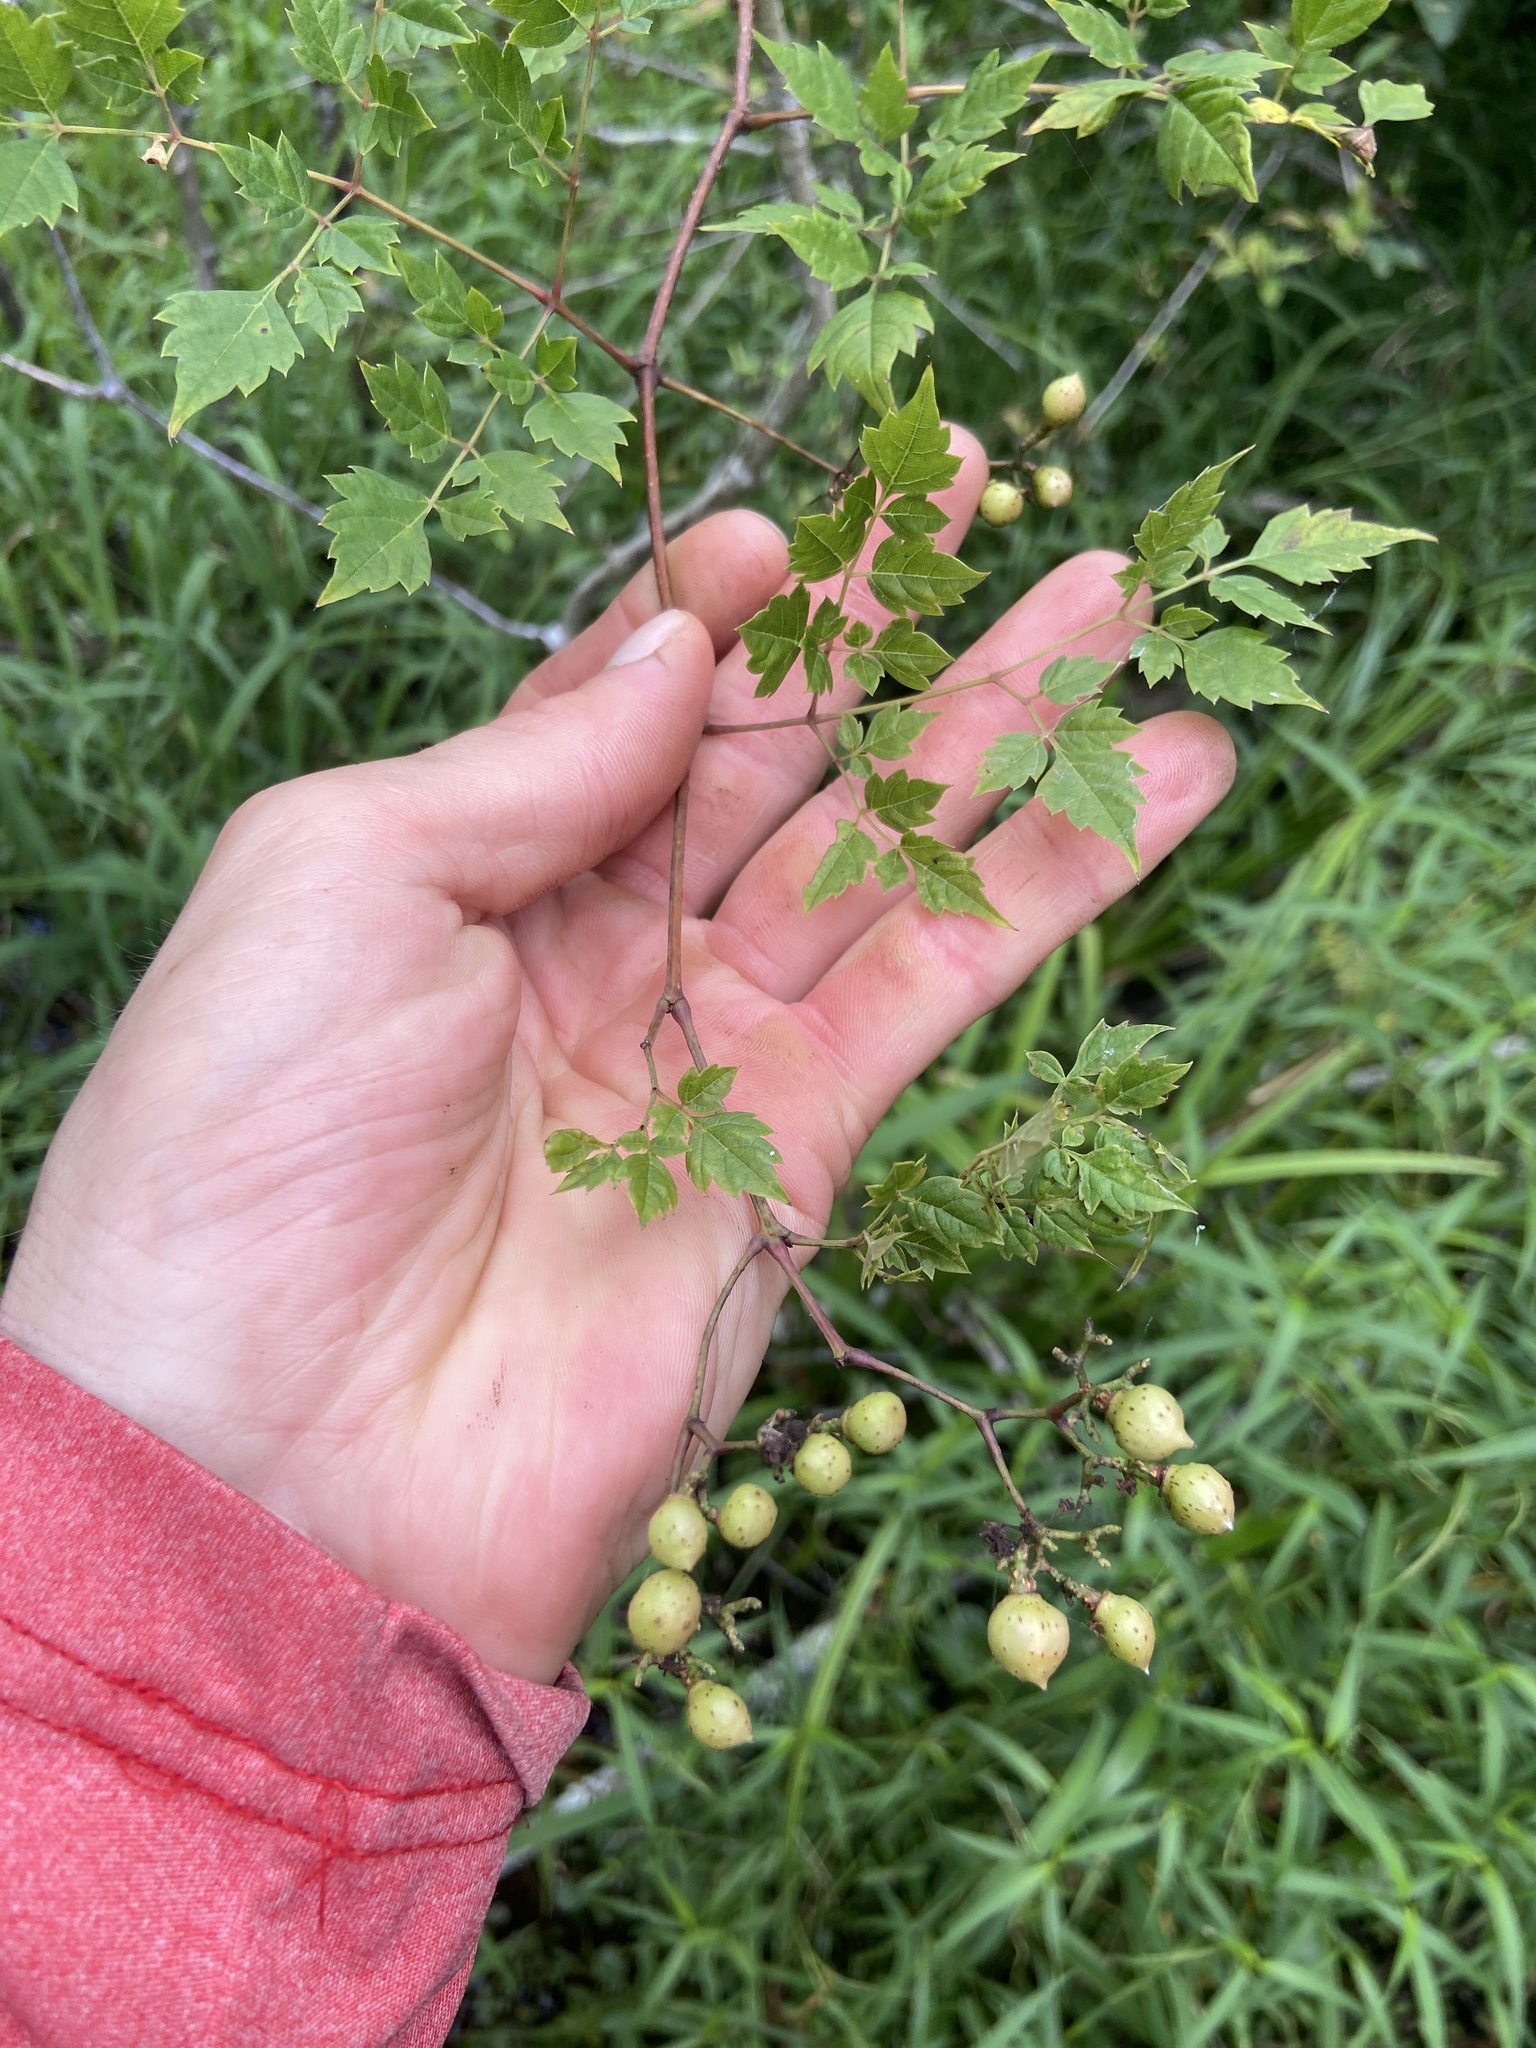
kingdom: Plantae
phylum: Tracheophyta
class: Magnoliopsida
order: Vitales
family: Vitaceae
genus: Nekemias
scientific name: Nekemias arborea
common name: Peppervine
